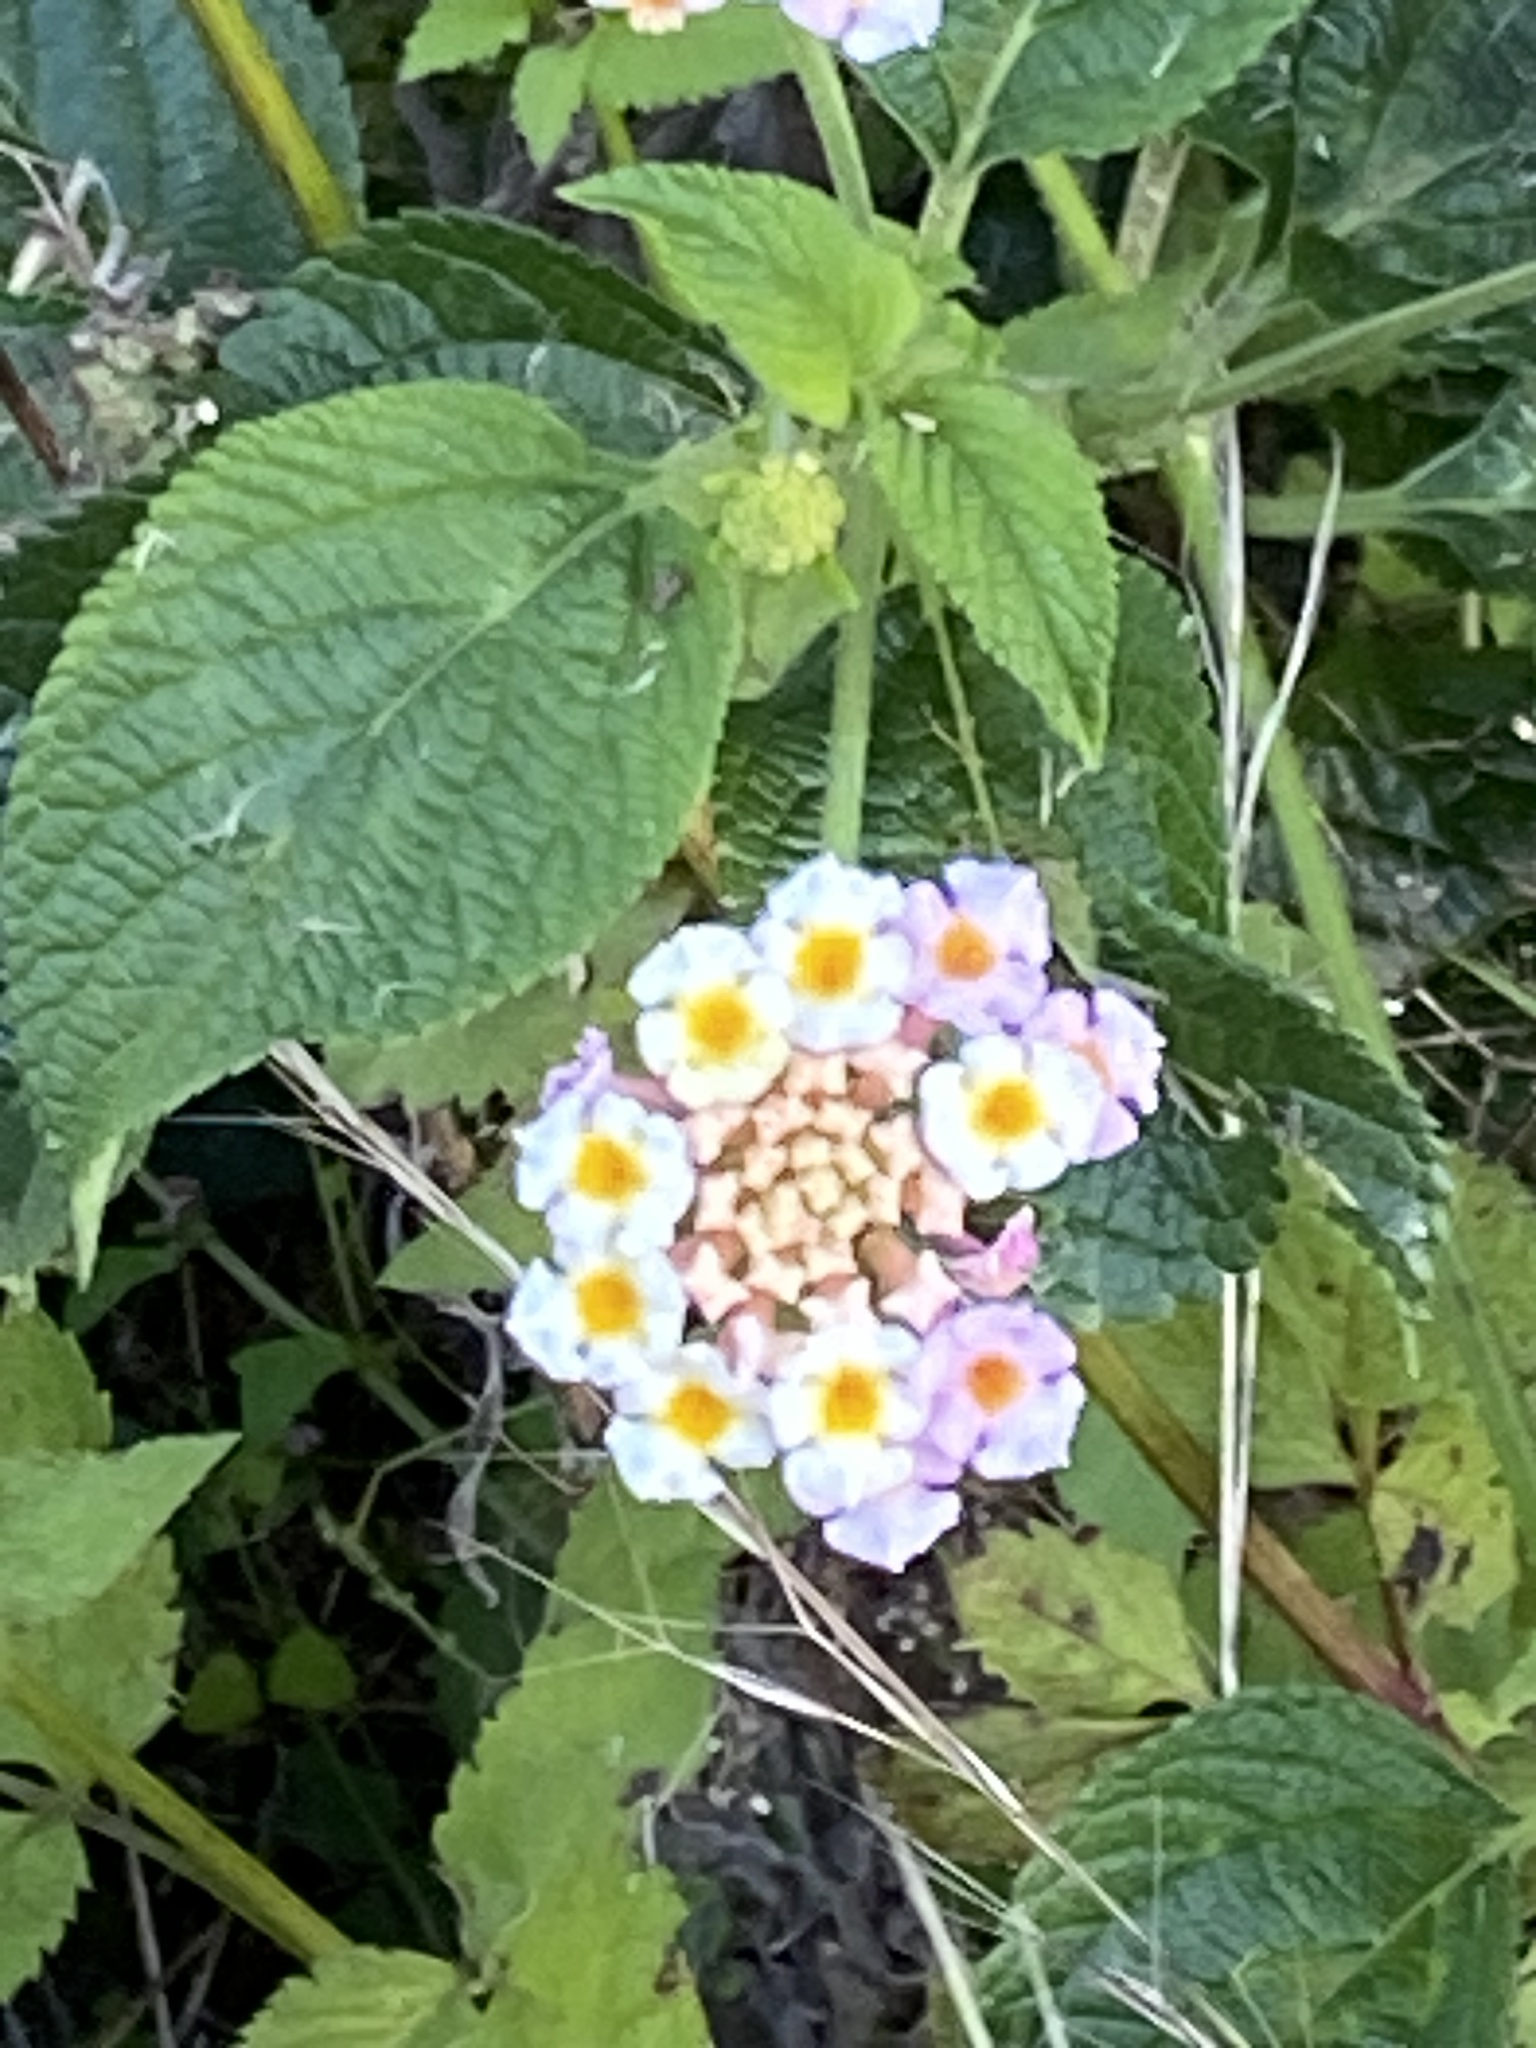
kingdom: Plantae
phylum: Tracheophyta
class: Magnoliopsida
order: Lamiales
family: Verbenaceae
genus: Lantana
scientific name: Lantana camara
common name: Lantana
